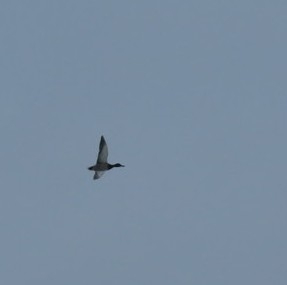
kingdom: Animalia
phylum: Chordata
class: Aves
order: Anseriformes
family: Anatidae
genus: Anas
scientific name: Anas platyrhynchos
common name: Mallard
